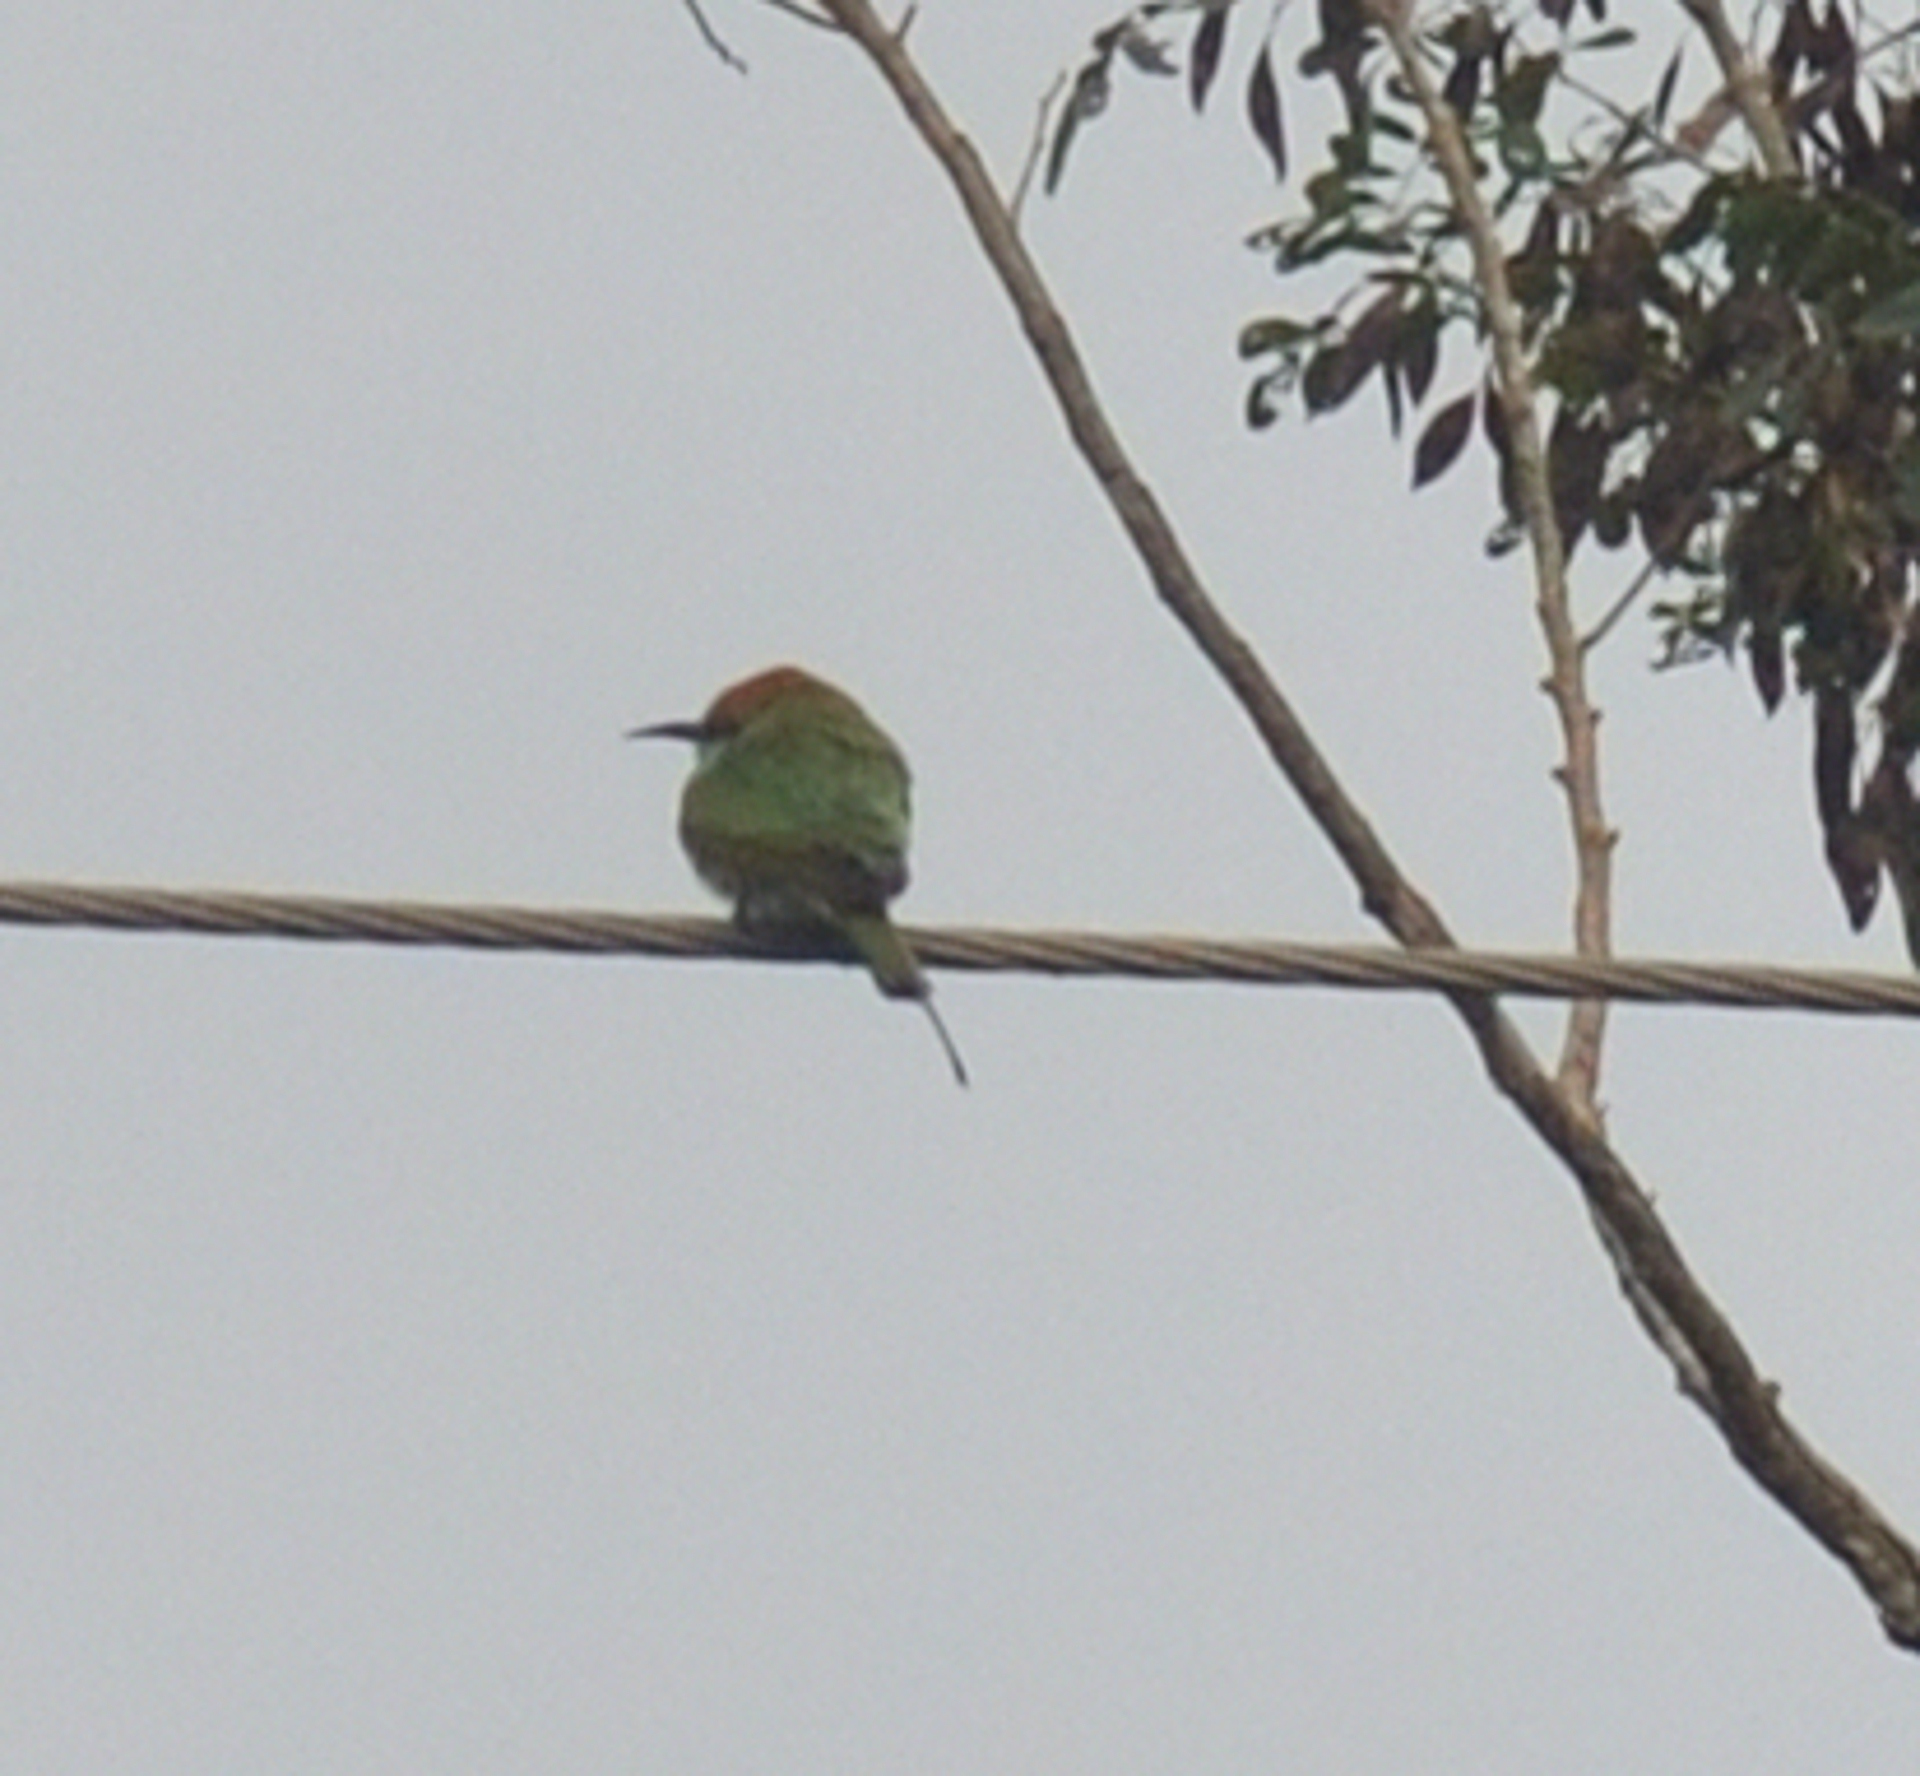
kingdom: Animalia
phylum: Chordata
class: Aves
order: Coraciiformes
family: Meropidae
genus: Merops
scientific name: Merops orientalis
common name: Green bee-eater
